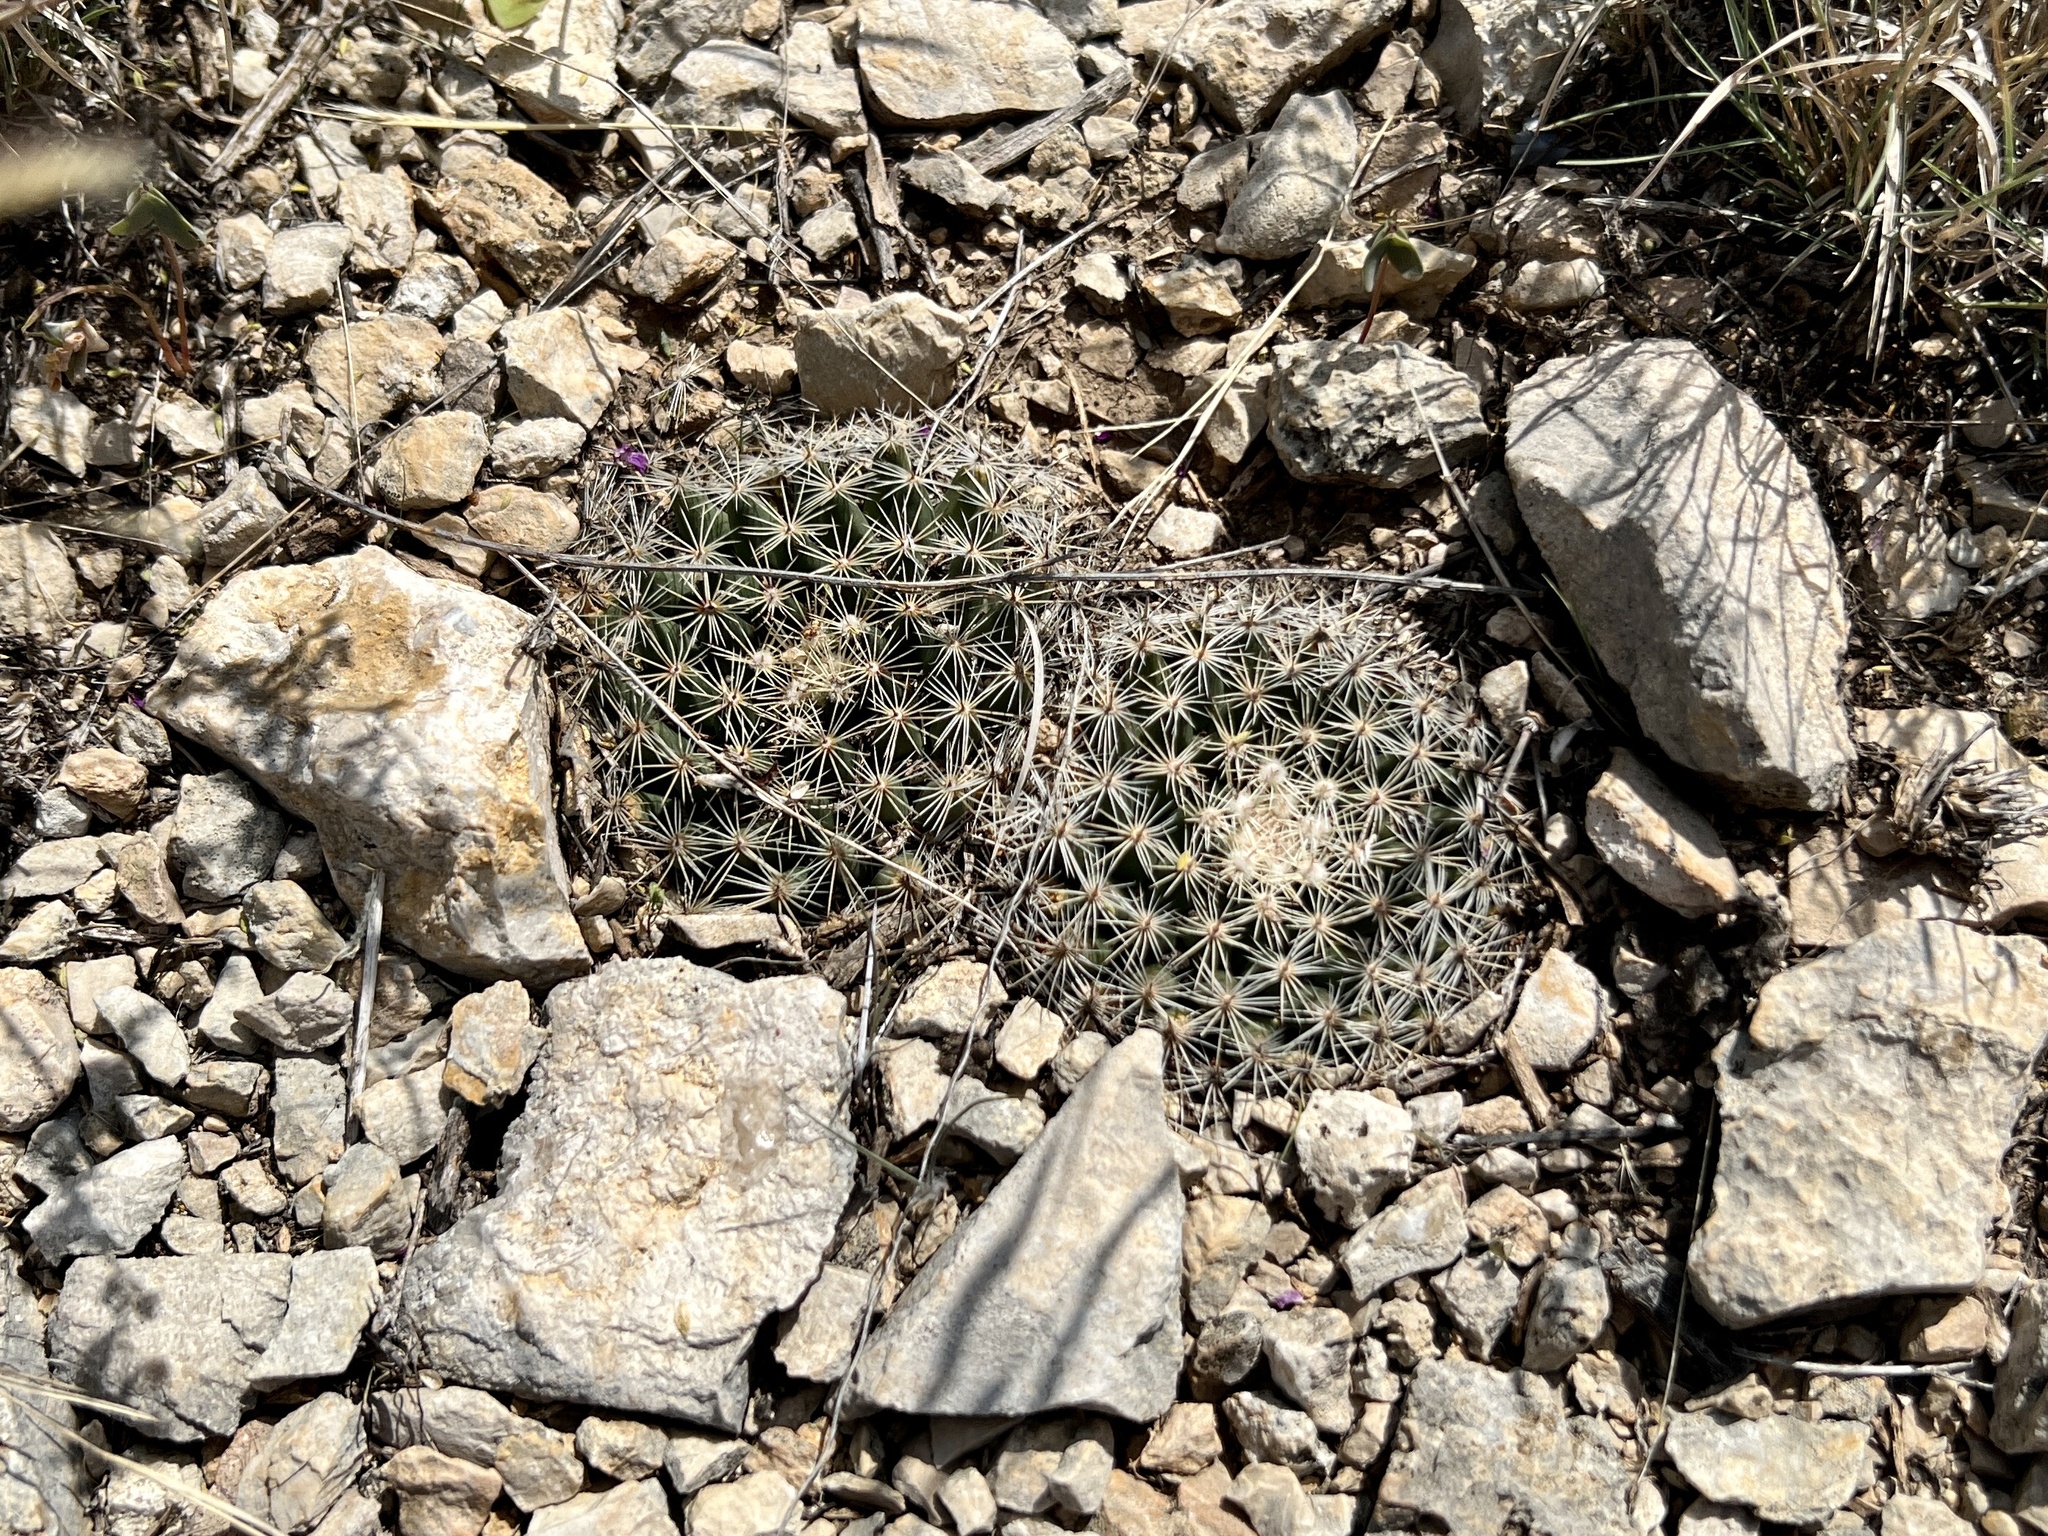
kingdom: Plantae
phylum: Tracheophyta
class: Magnoliopsida
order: Caryophyllales
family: Cactaceae
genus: Mammillaria
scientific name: Mammillaria heyderi
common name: Little nipple cactus
